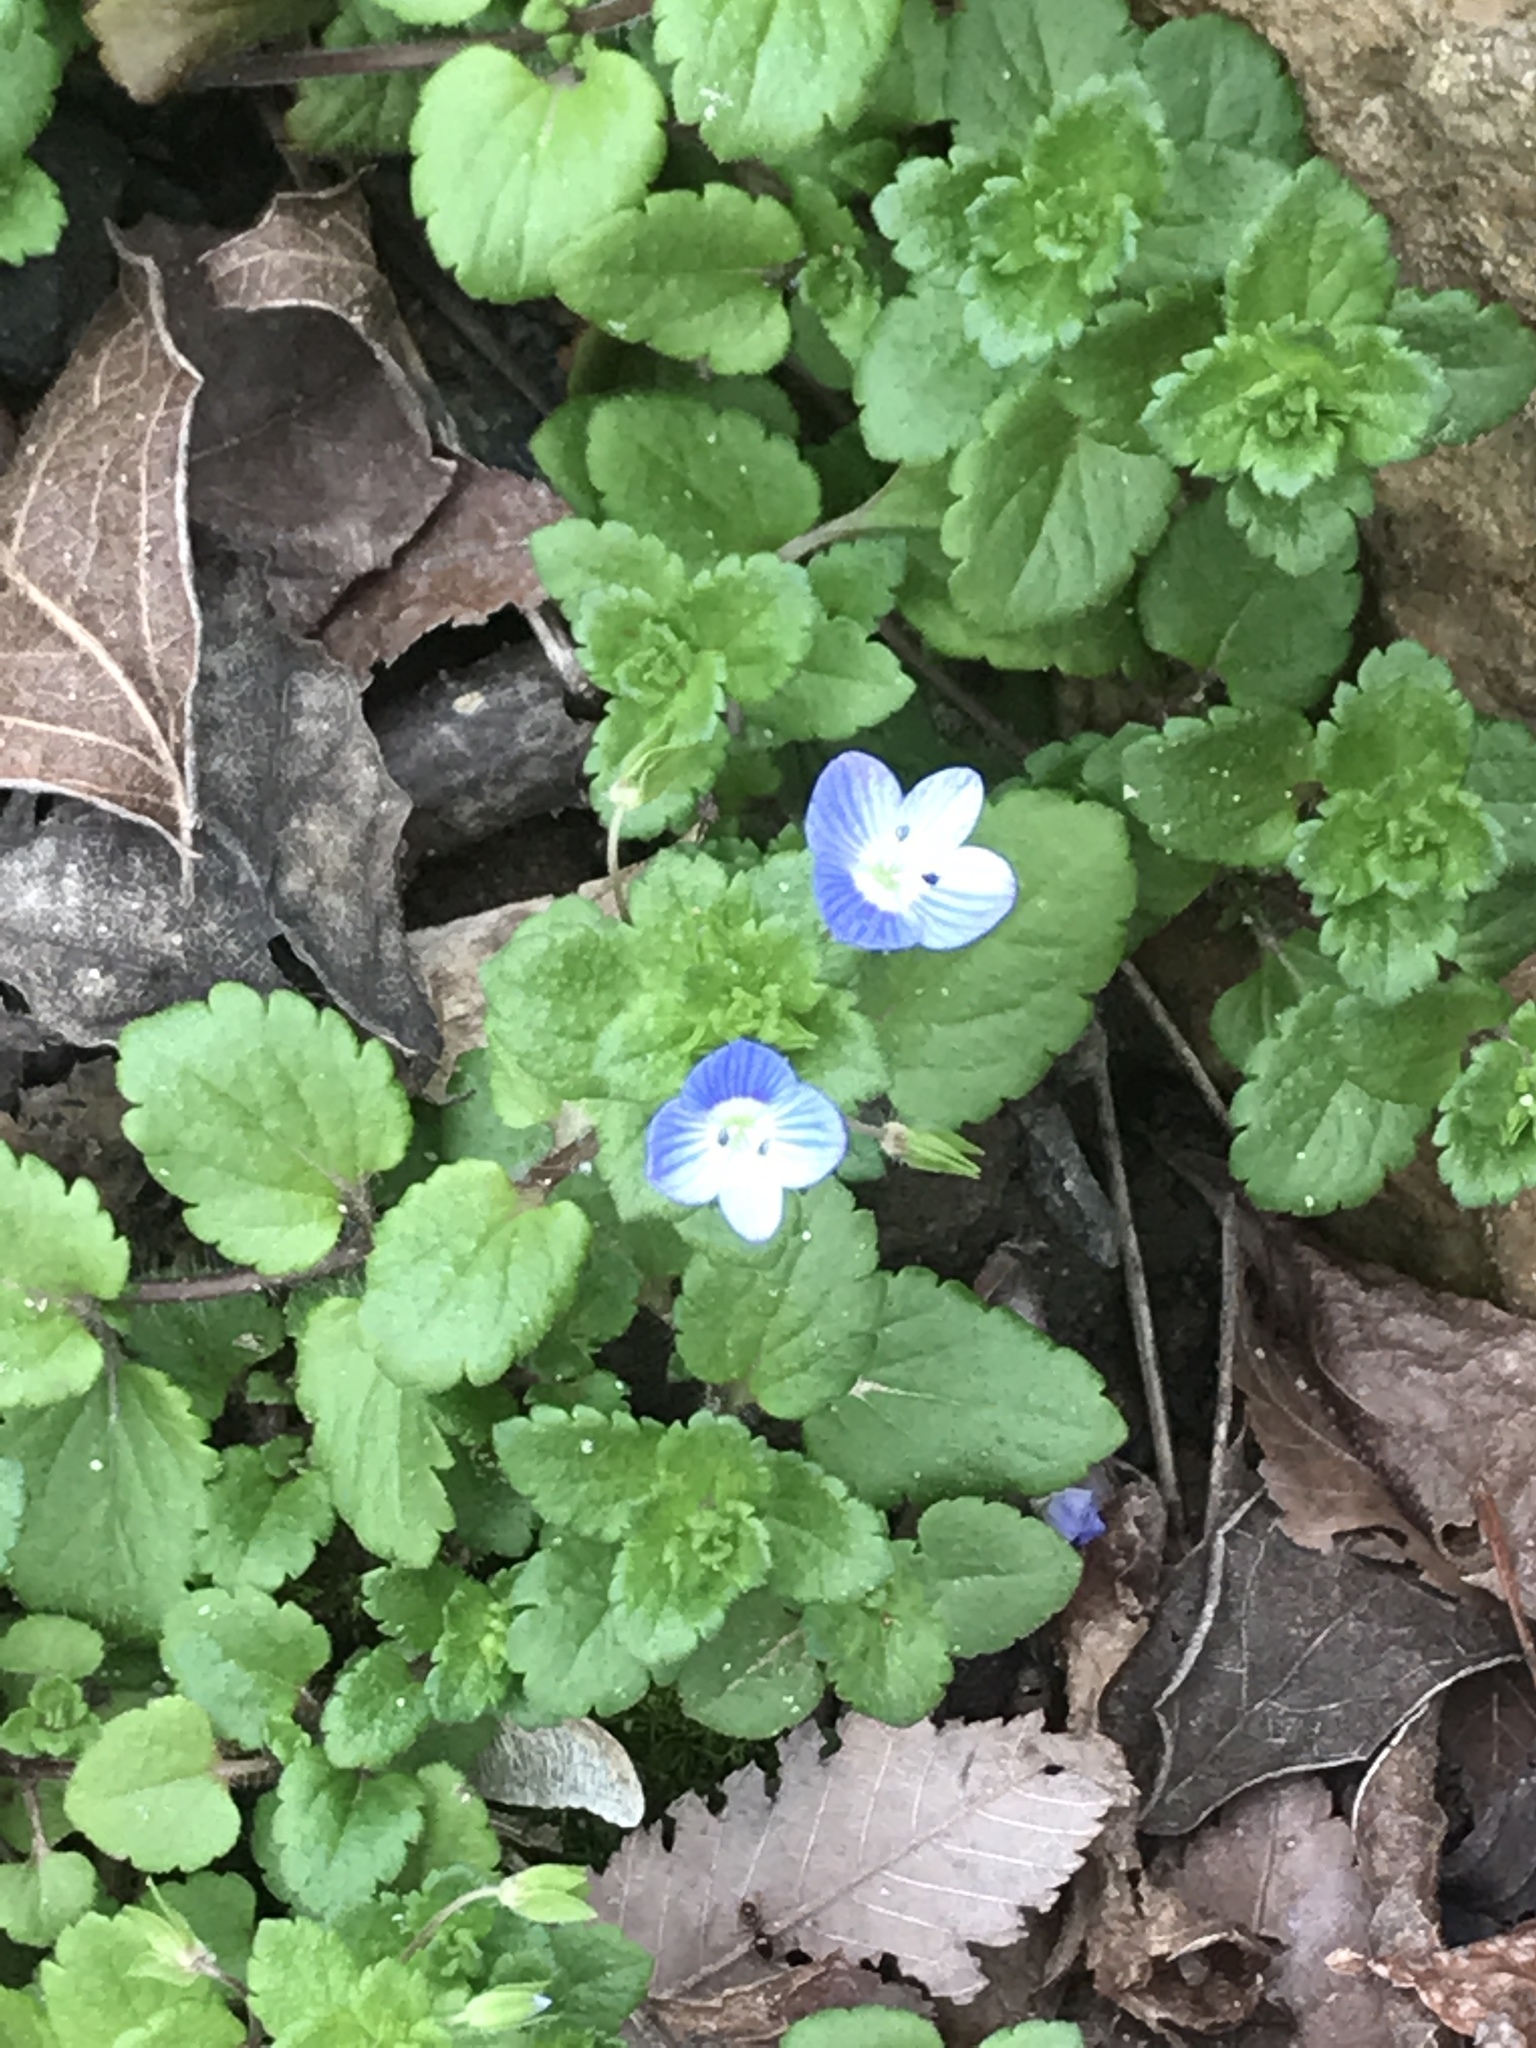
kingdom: Plantae
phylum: Tracheophyta
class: Magnoliopsida
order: Lamiales
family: Plantaginaceae
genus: Veronica
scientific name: Veronica persica
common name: Common field-speedwell
